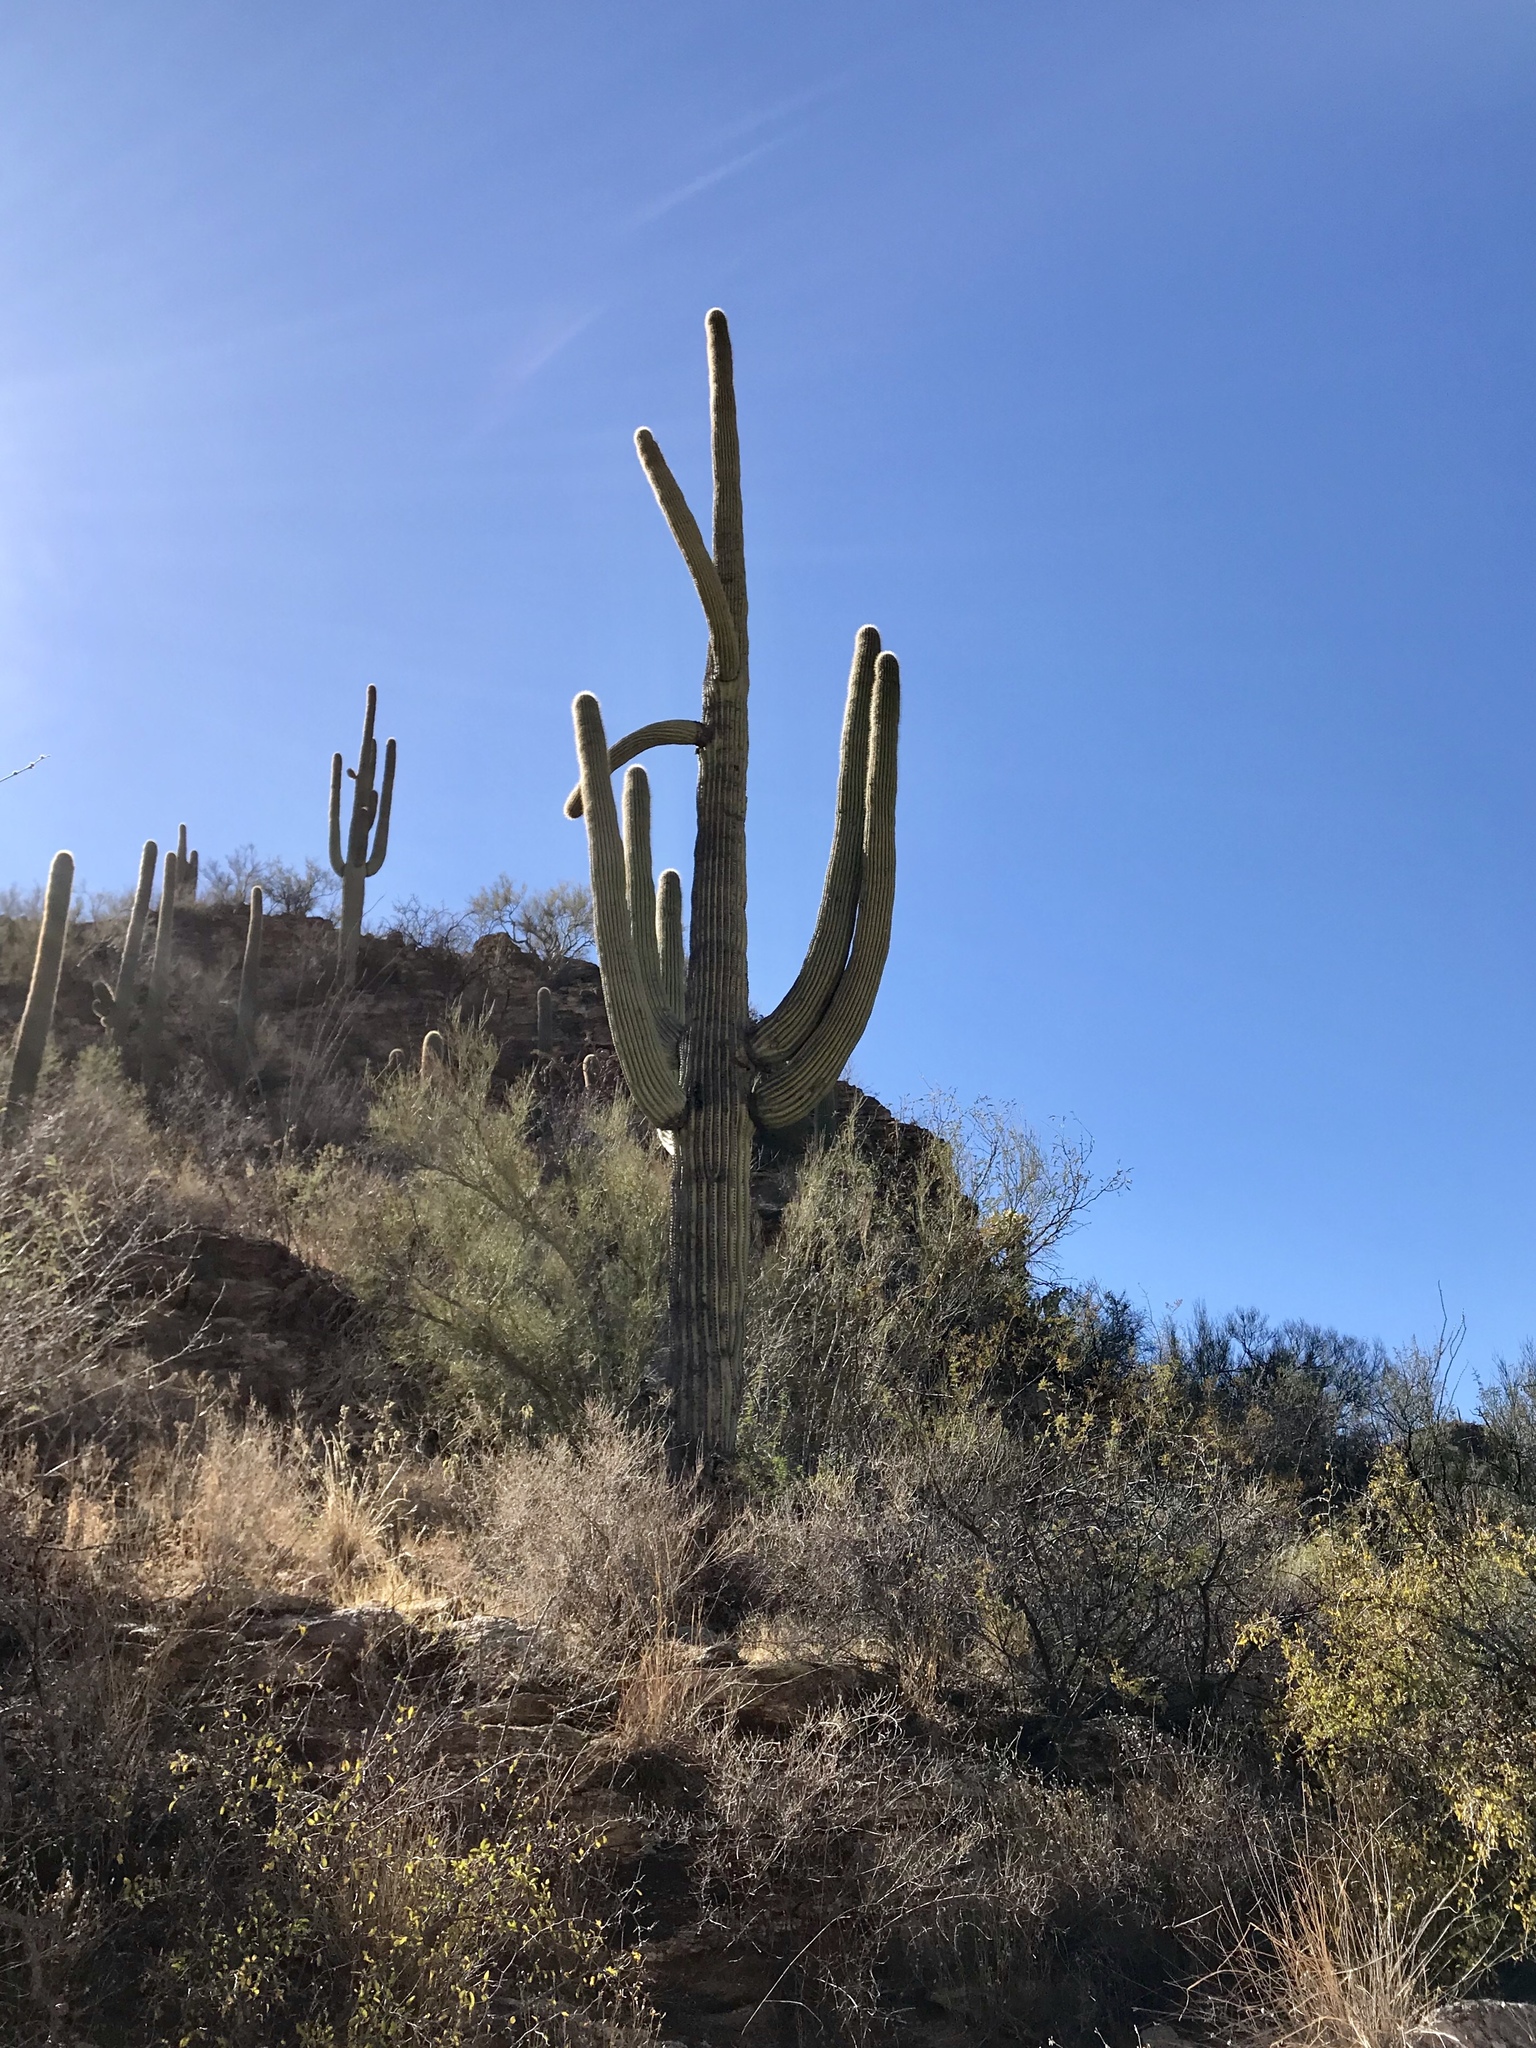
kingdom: Plantae
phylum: Tracheophyta
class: Magnoliopsida
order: Caryophyllales
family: Cactaceae
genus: Carnegiea
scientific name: Carnegiea gigantea
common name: Saguaro
